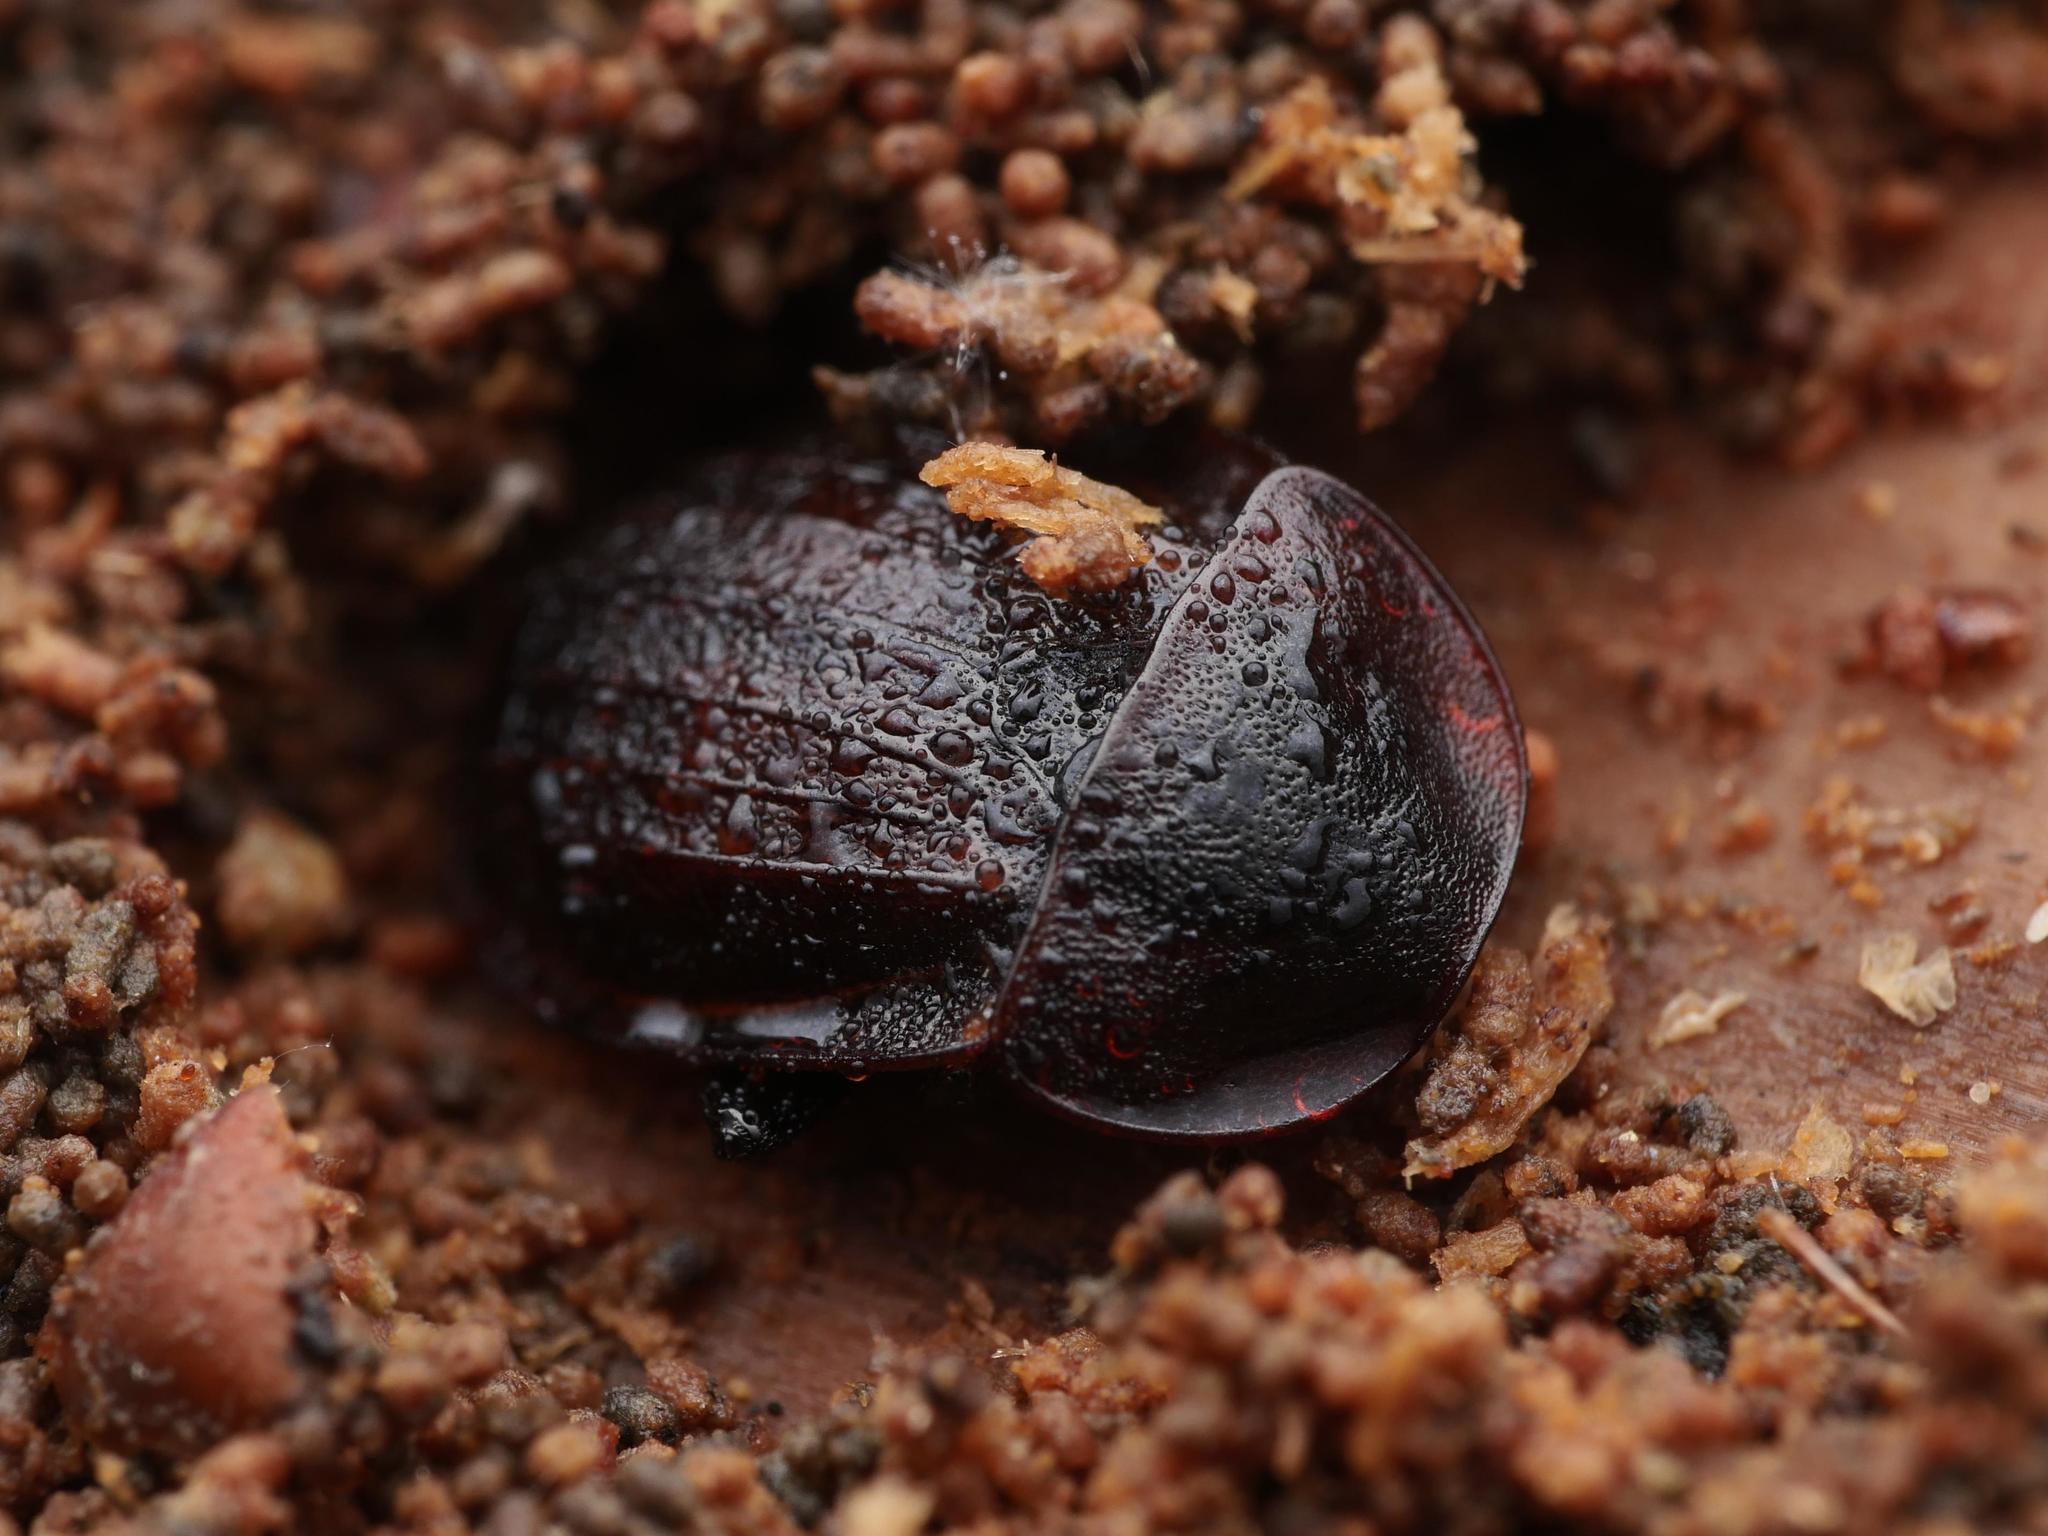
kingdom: Animalia
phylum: Arthropoda
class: Insecta
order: Coleoptera
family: Staphylinidae
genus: Silpha
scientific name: Silpha atrata
